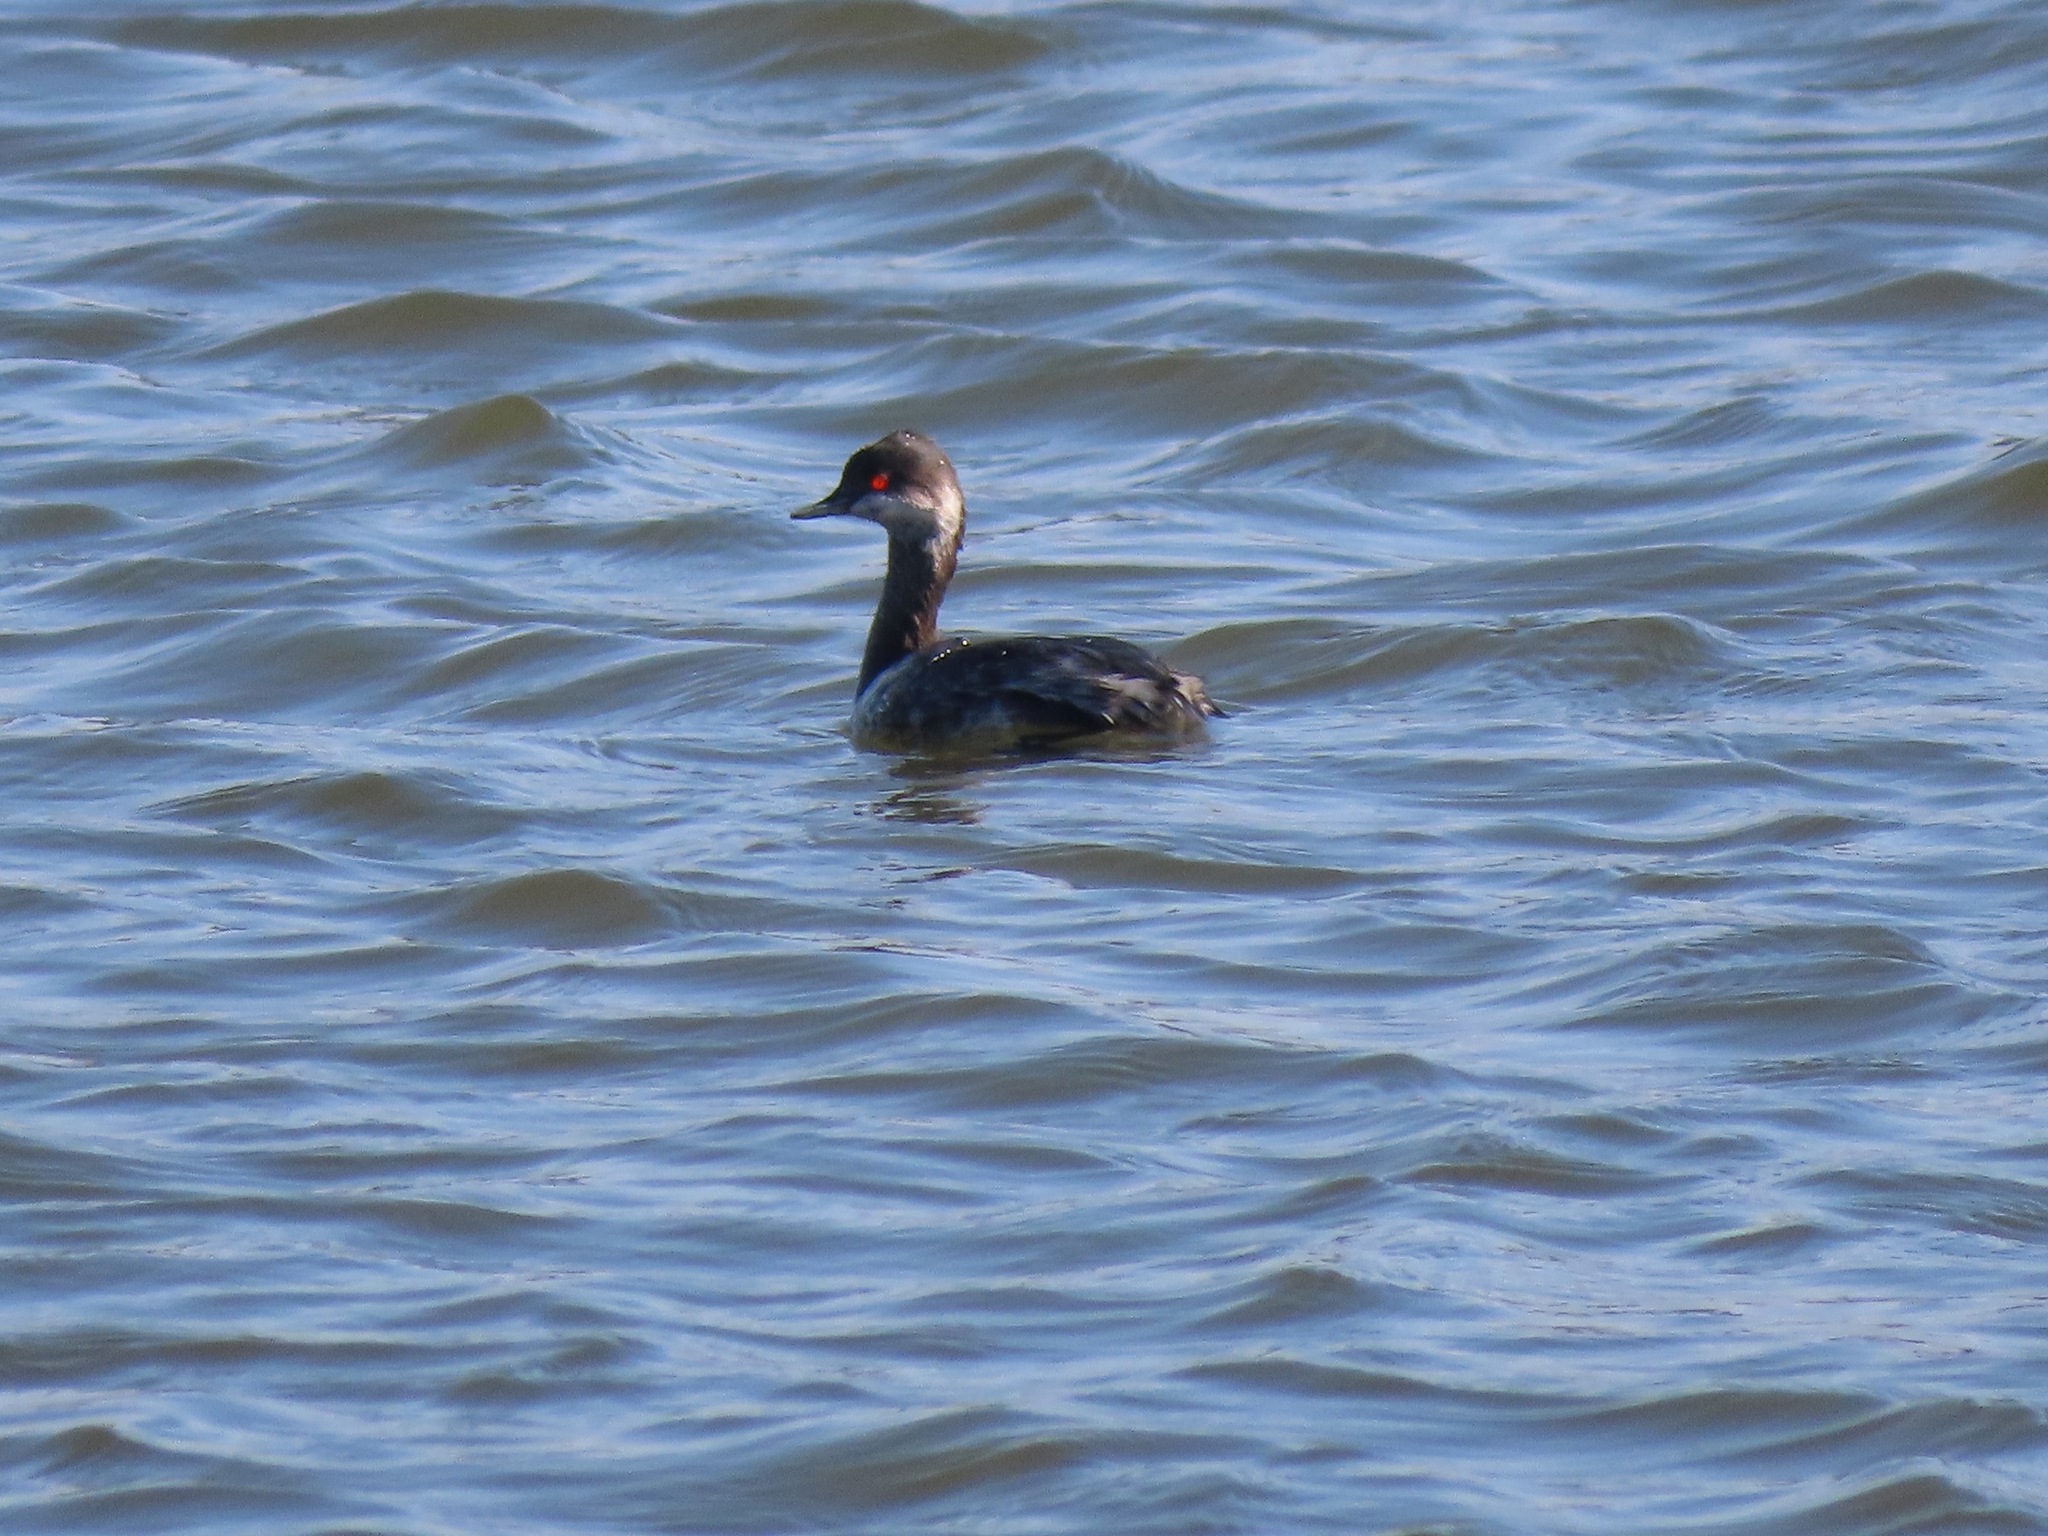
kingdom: Animalia
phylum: Chordata
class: Aves
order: Podicipediformes
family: Podicipedidae
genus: Podiceps
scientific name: Podiceps nigricollis
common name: Black-necked grebe
